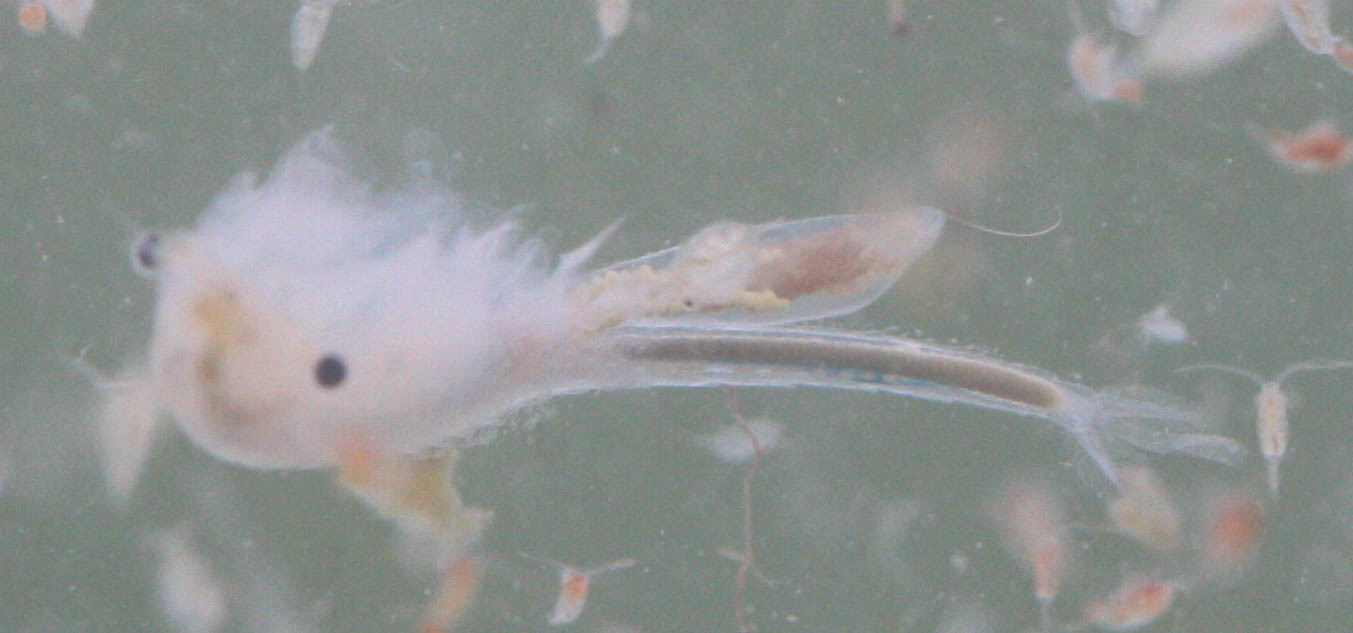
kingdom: Animalia
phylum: Arthropoda
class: Branchiopoda
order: Anostraca
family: Branchinectidae
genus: Branchinecta
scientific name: Branchinecta conservatio
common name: Conservancy fairy shrimp
